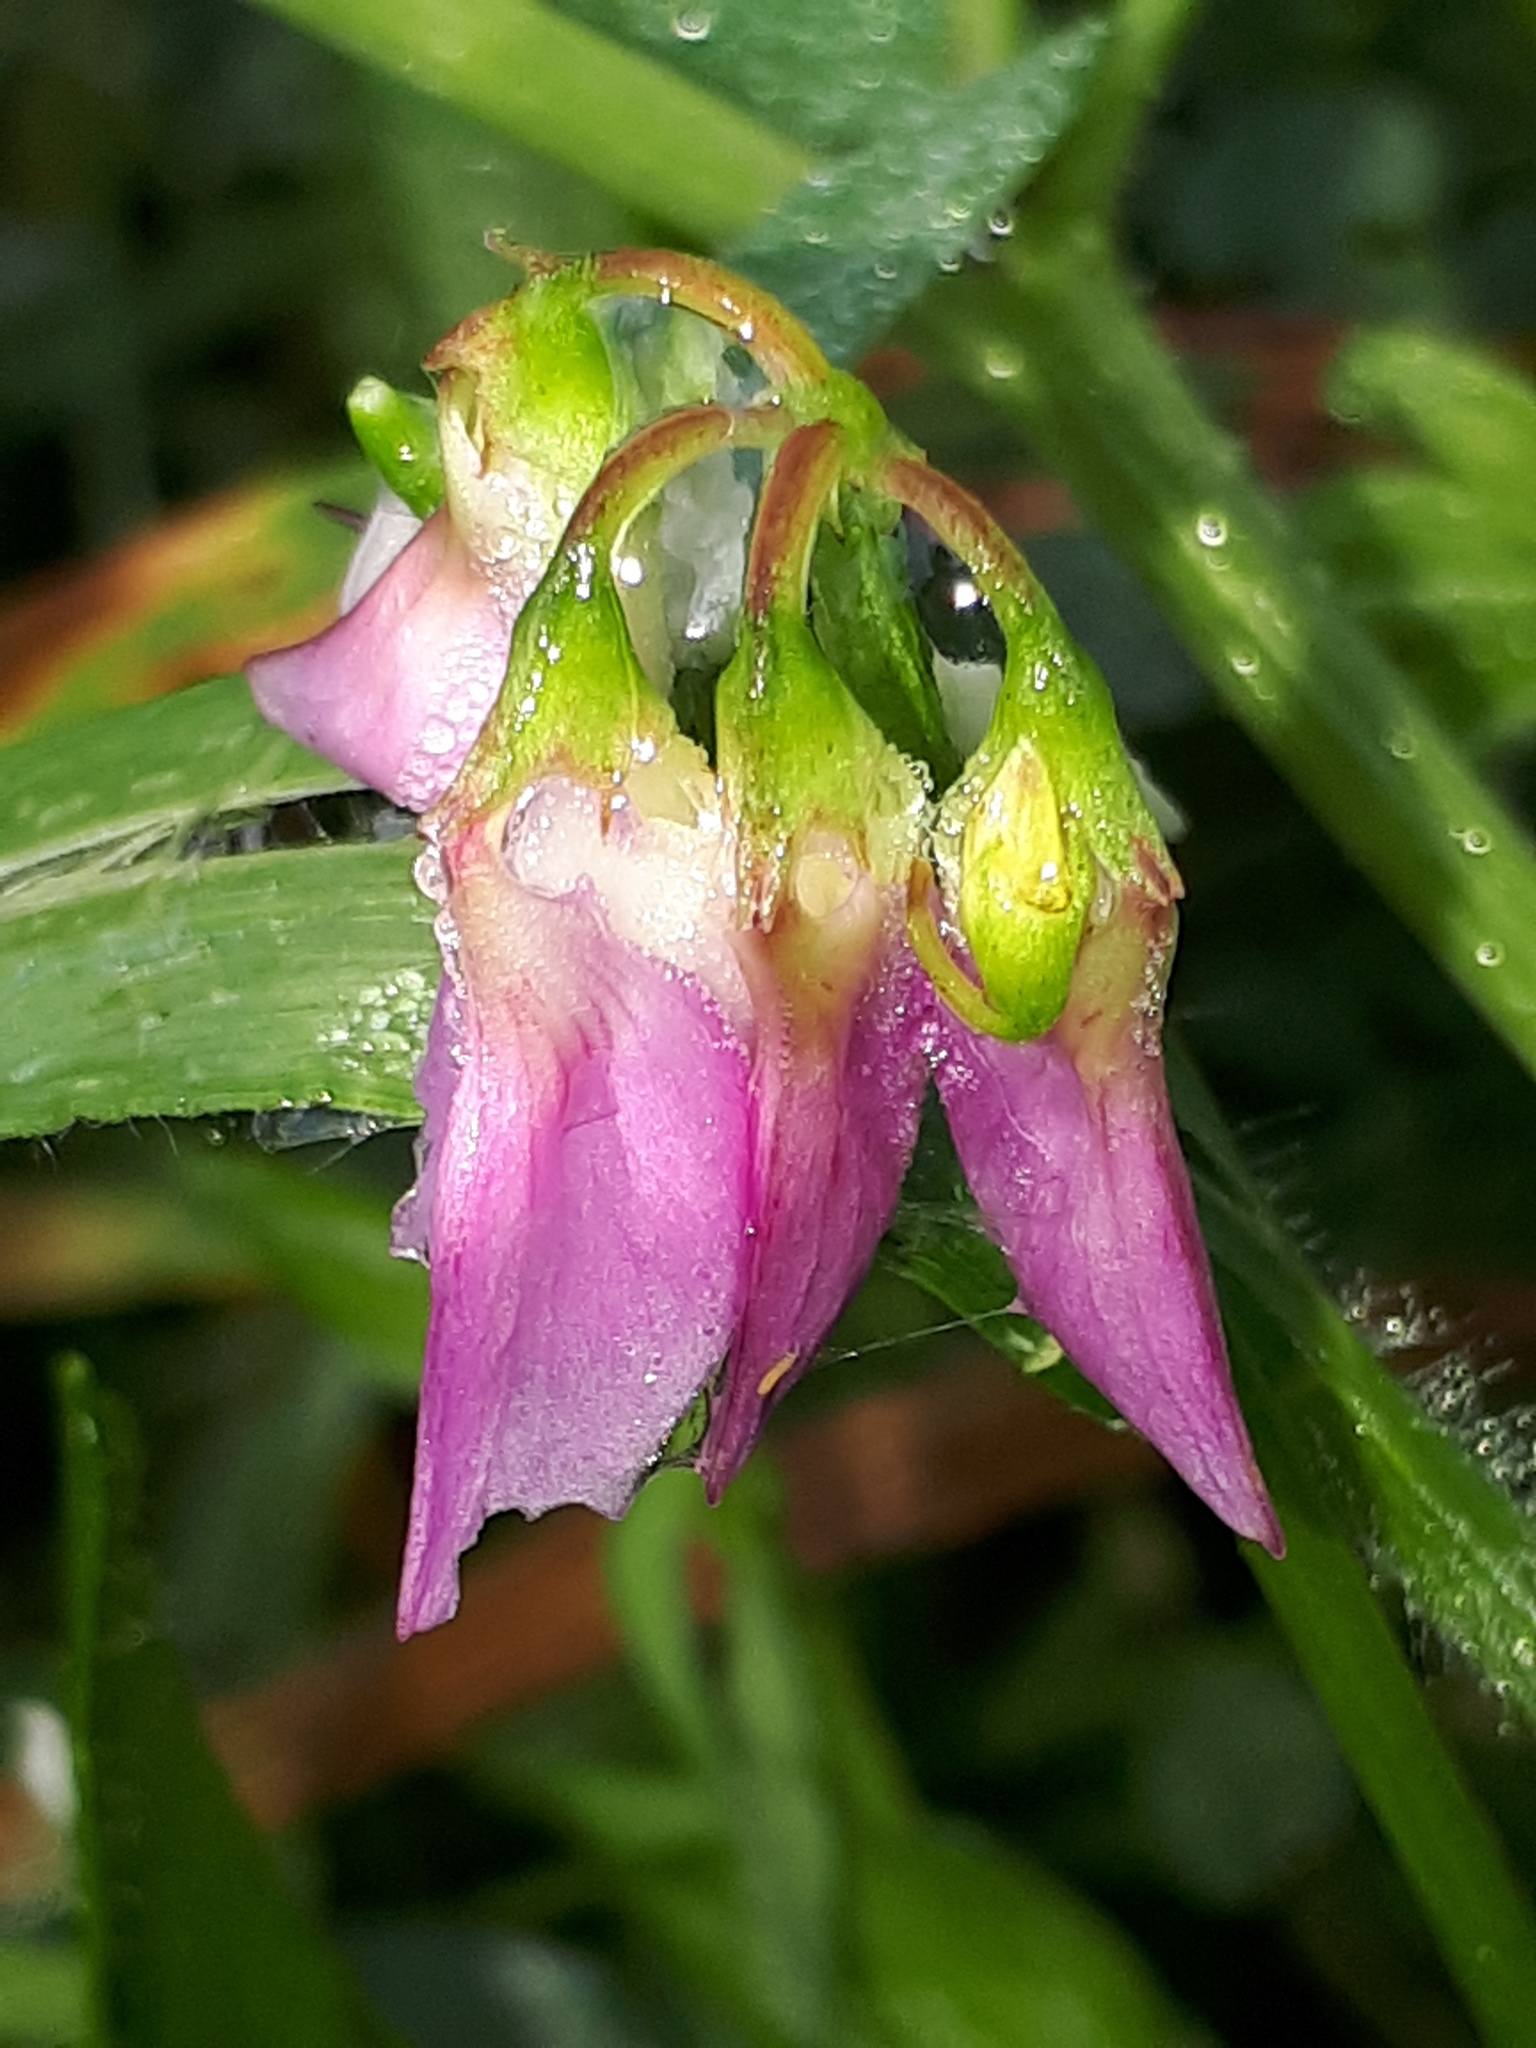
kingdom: Plantae
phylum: Tracheophyta
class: Magnoliopsida
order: Fabales
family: Fabaceae
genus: Coronilla
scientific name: Coronilla varia
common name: Crownvetch
